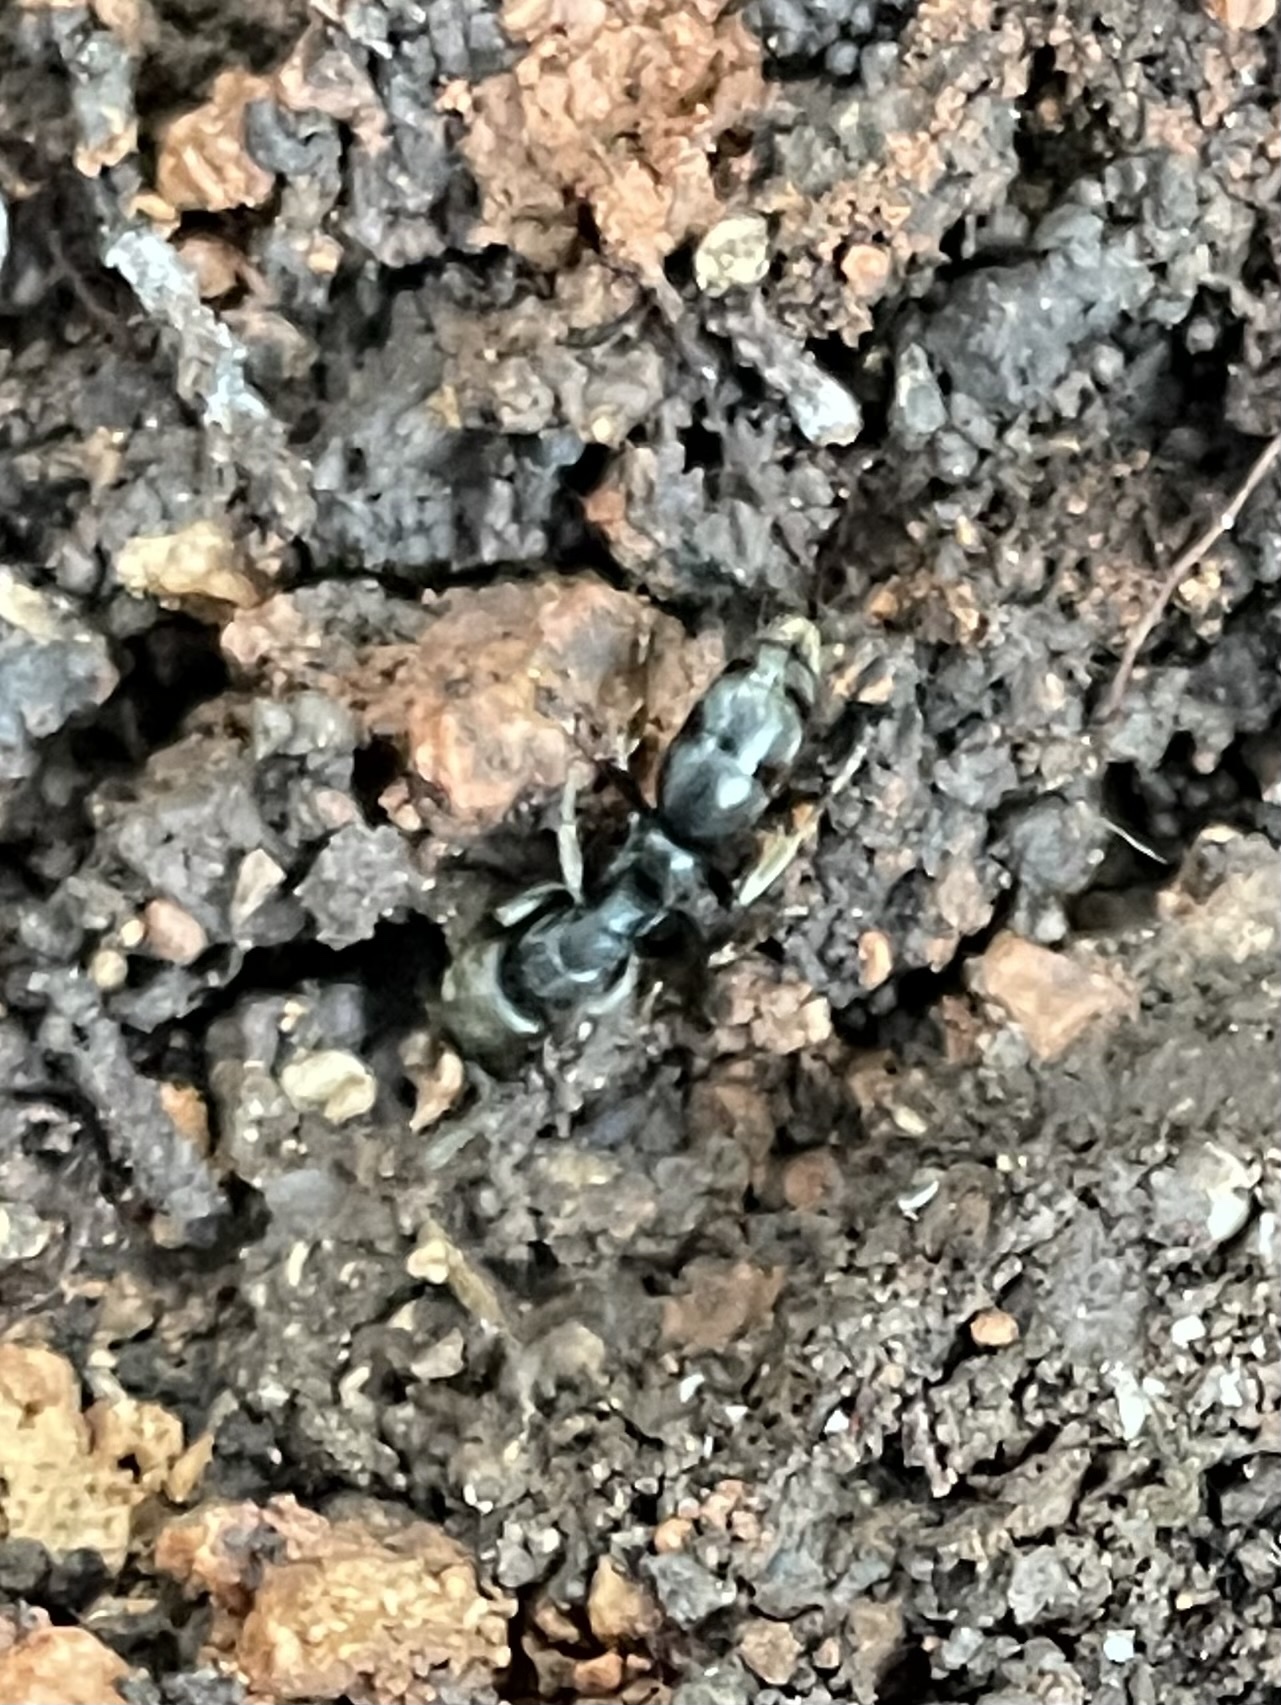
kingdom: Animalia
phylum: Arthropoda
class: Insecta
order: Hymenoptera
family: Formicidae
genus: Pachycondyla
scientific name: Pachycondyla harpax
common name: Ant
